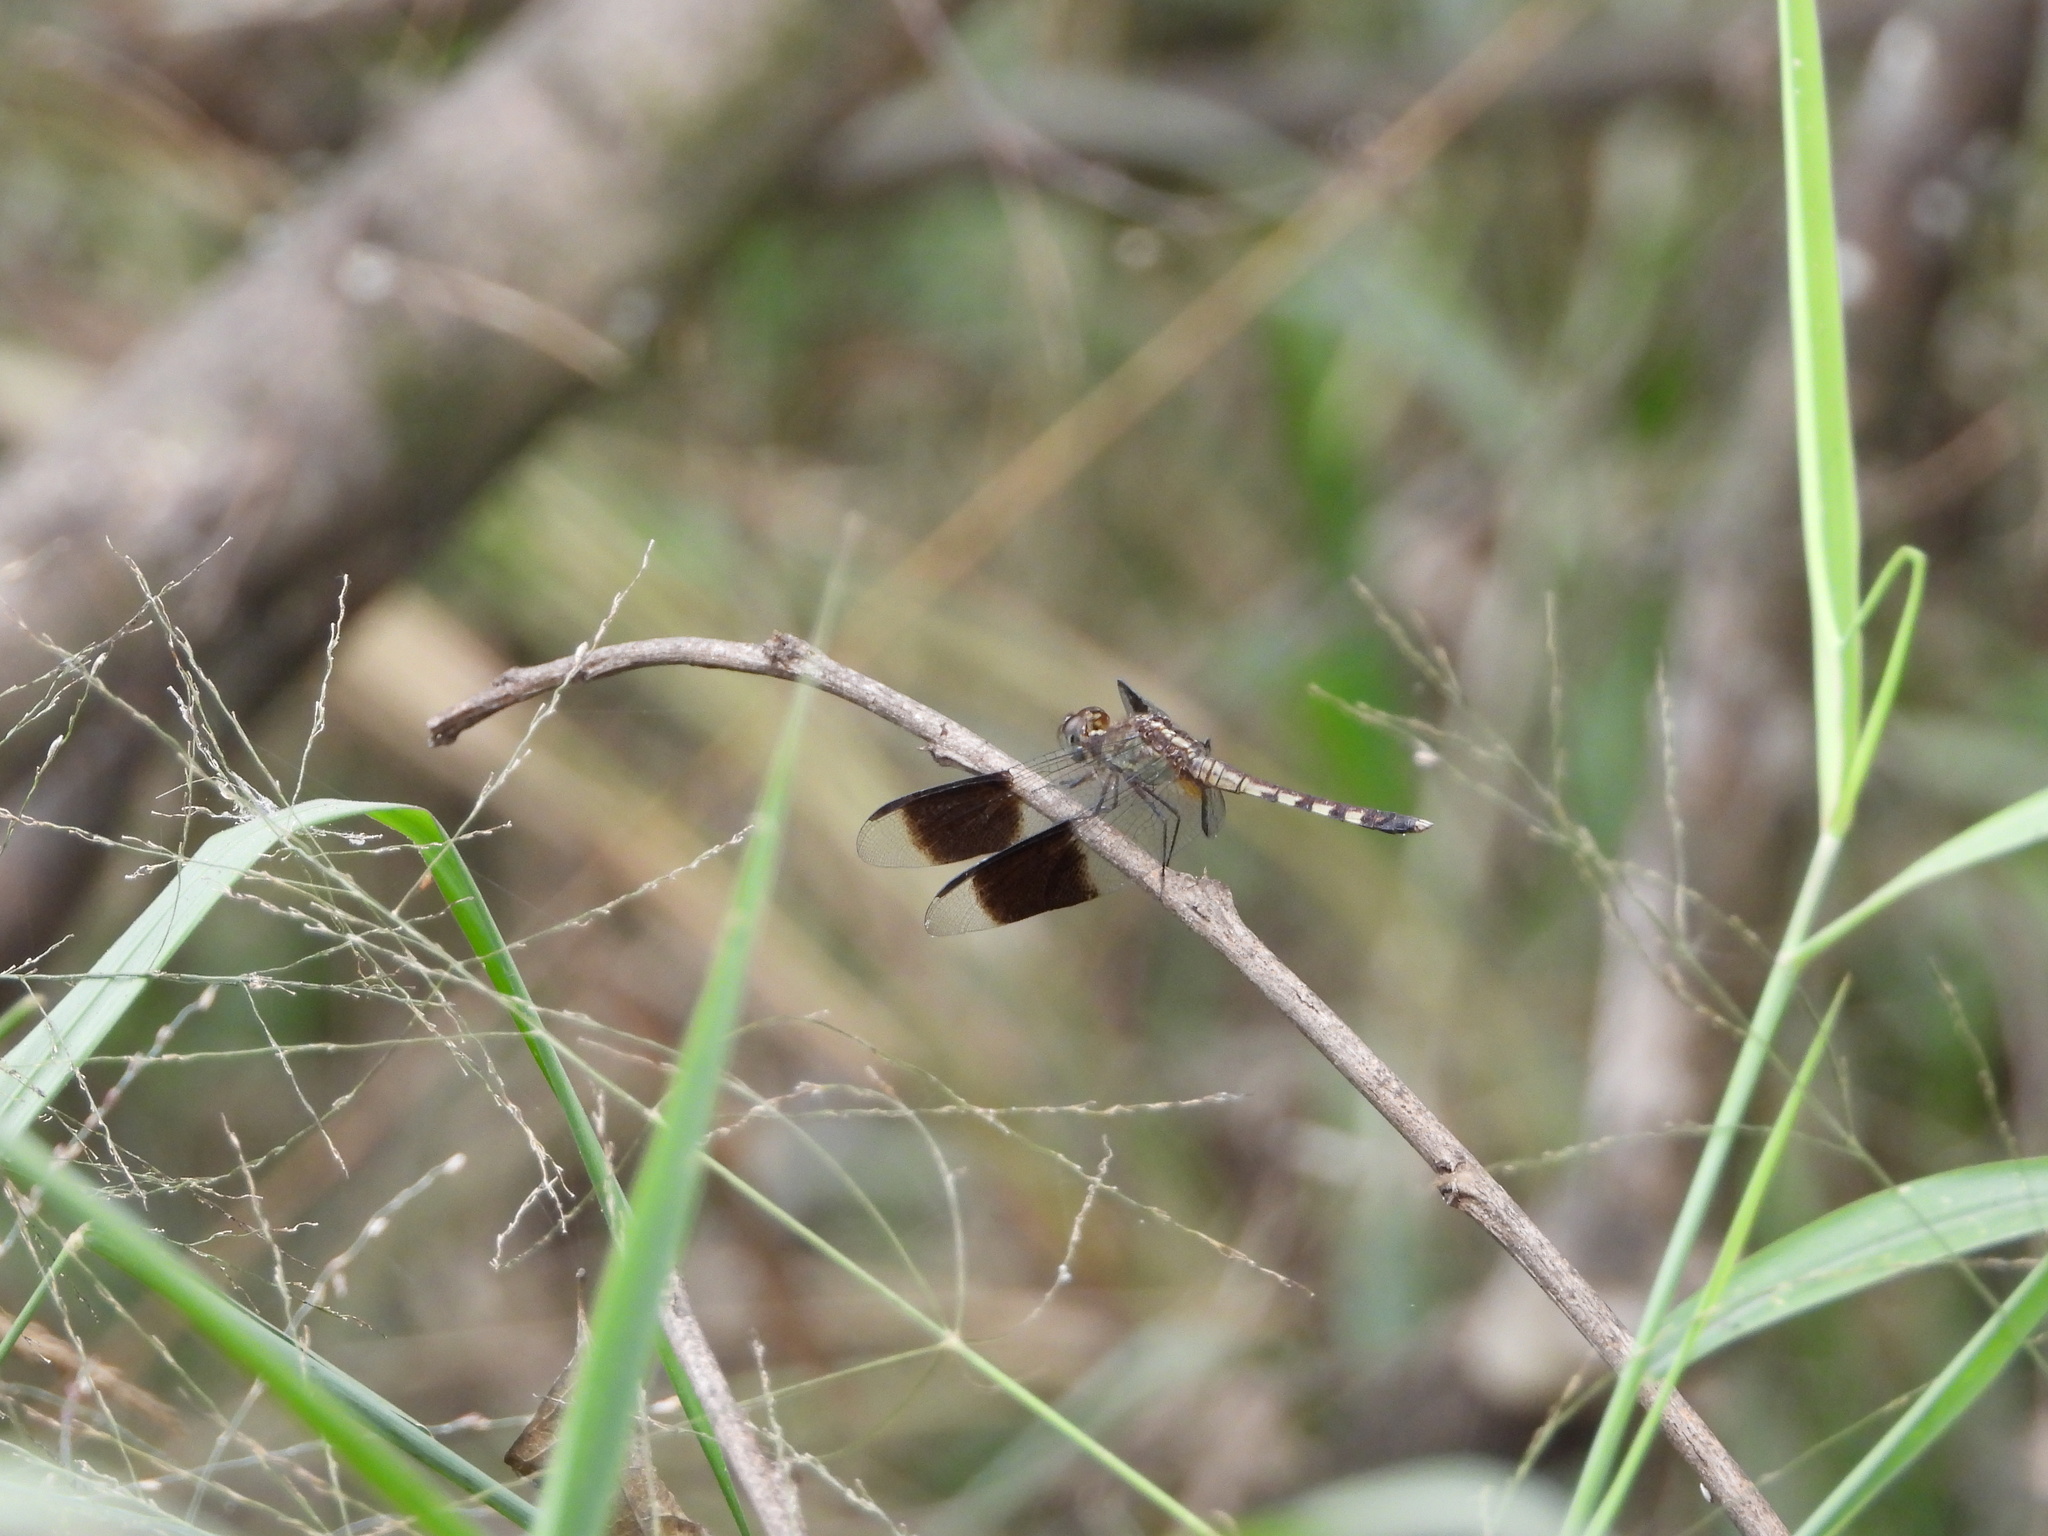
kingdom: Animalia
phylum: Arthropoda
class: Insecta
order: Odonata
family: Libellulidae
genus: Erythrodiplax
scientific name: Erythrodiplax umbrata
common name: Band-winged dragonlet
